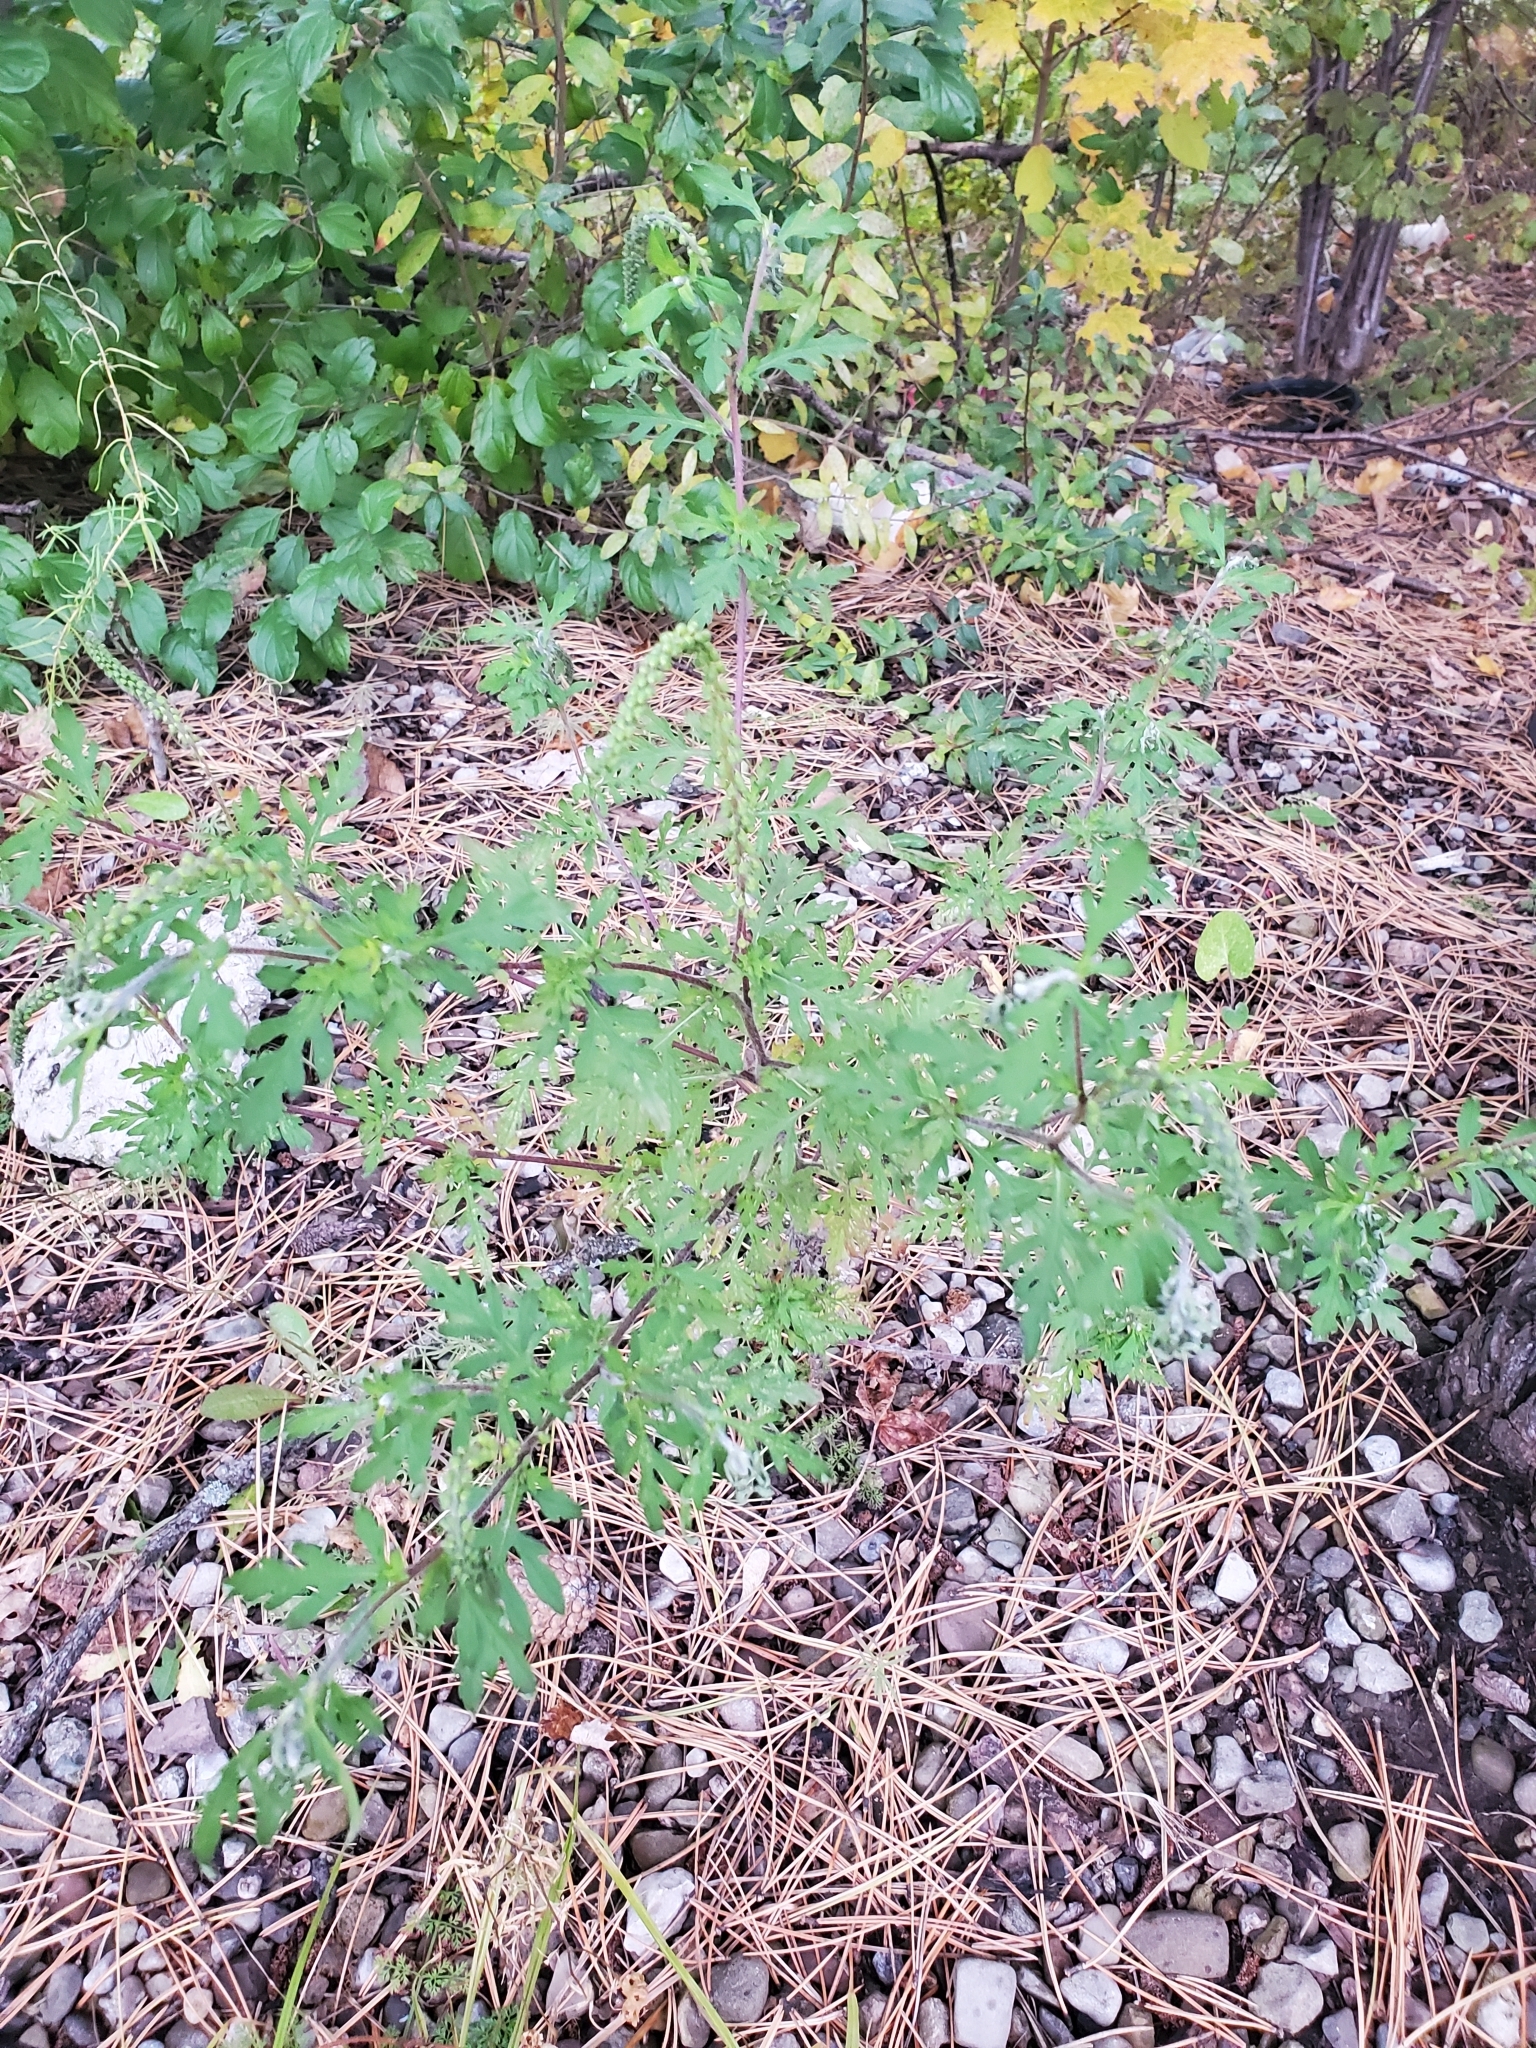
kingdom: Plantae
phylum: Tracheophyta
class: Magnoliopsida
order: Asterales
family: Asteraceae
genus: Ambrosia
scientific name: Ambrosia artemisiifolia
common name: Annual ragweed
